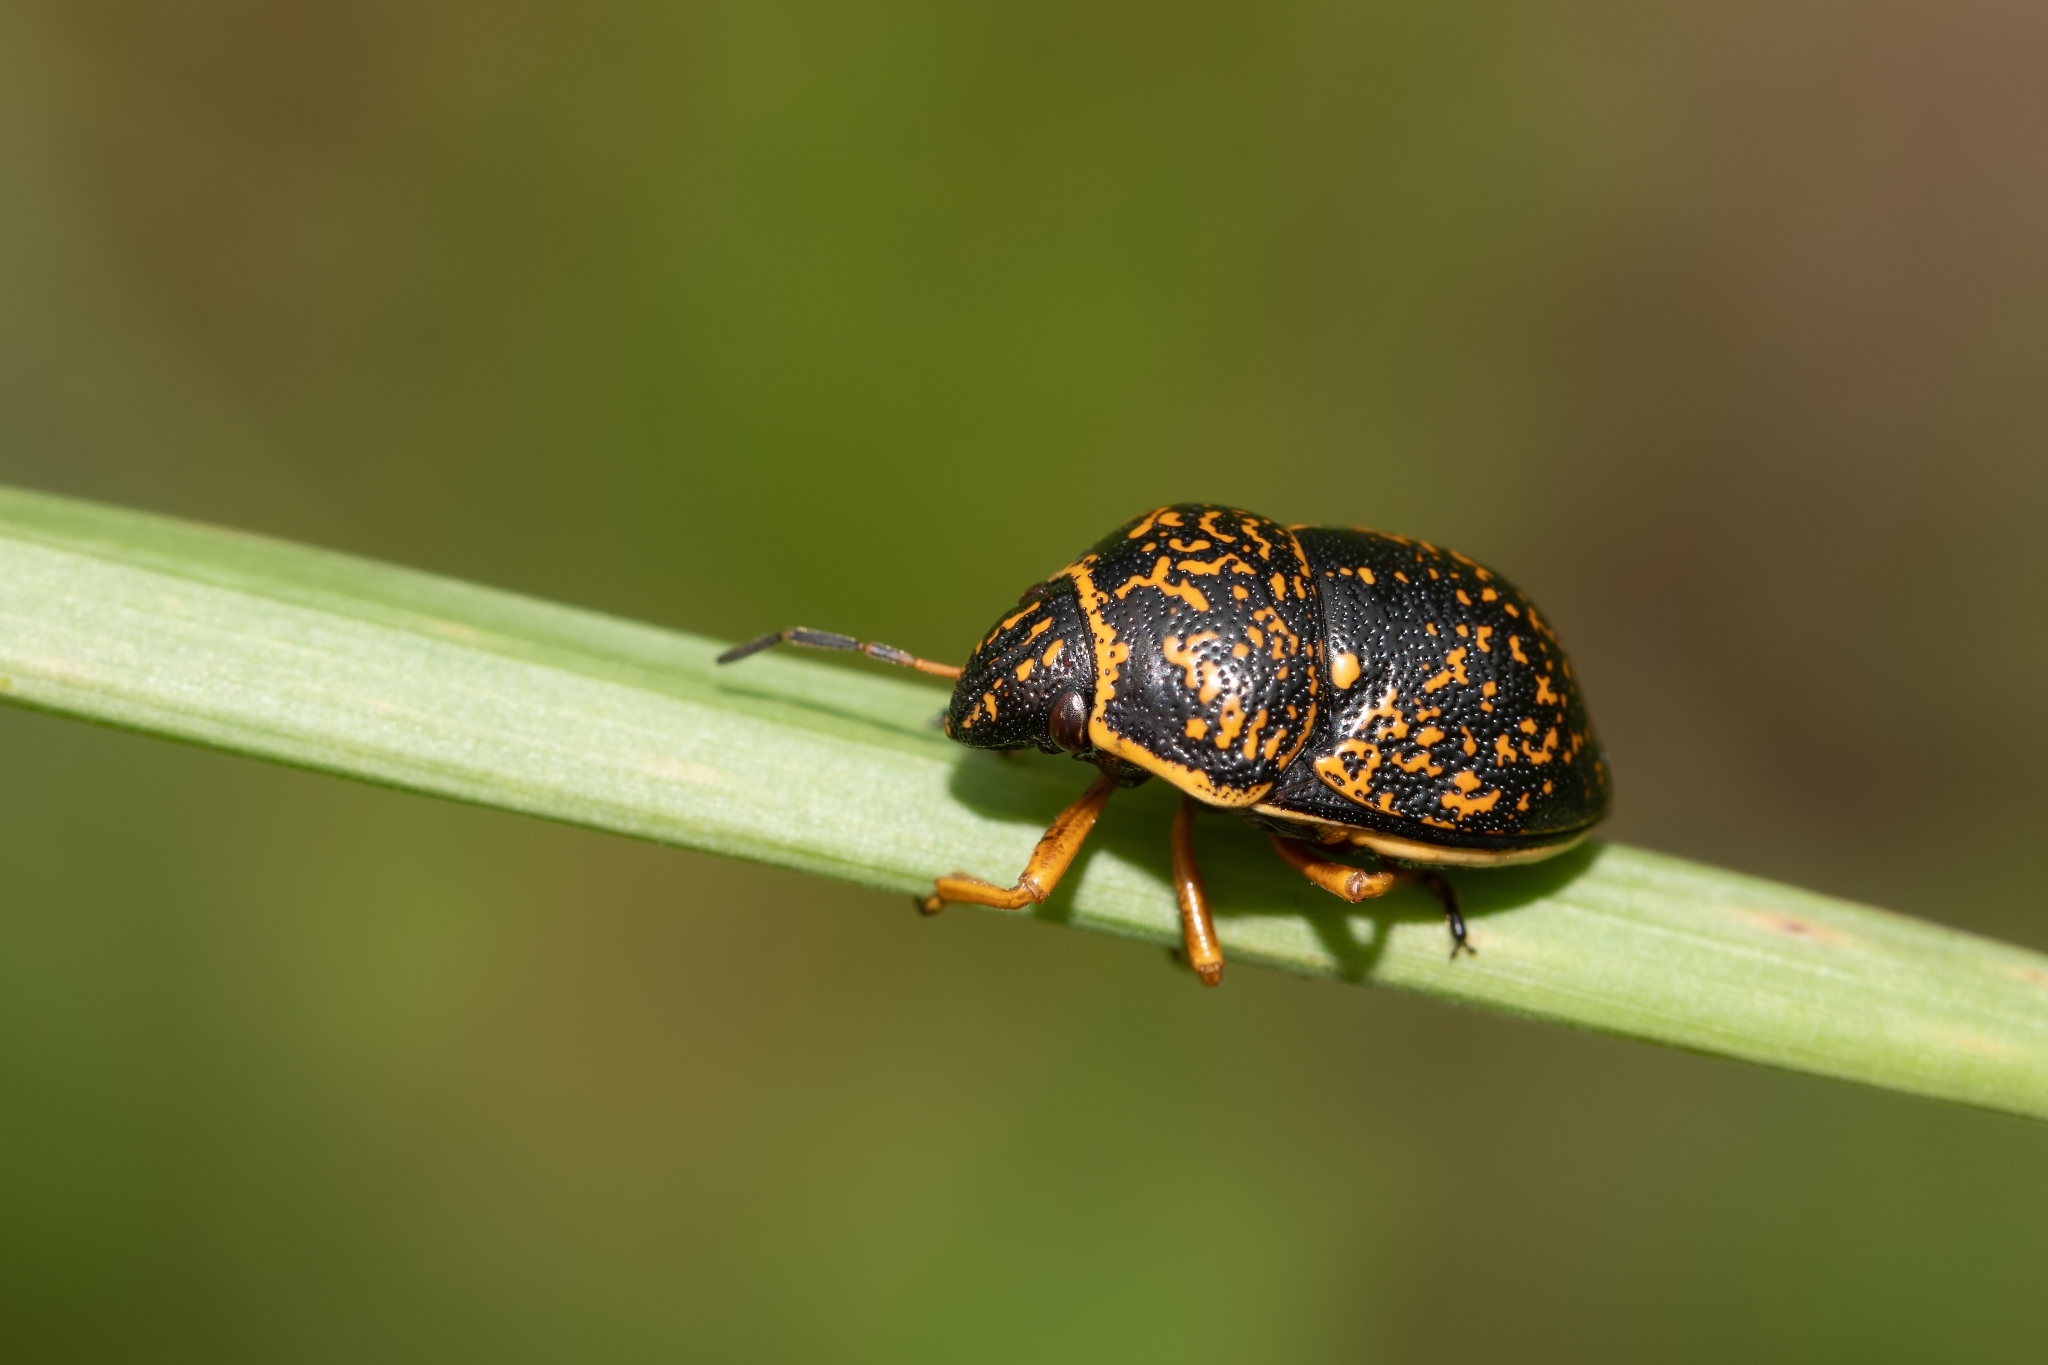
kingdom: Animalia
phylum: Arthropoda
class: Insecta
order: Hemiptera
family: Scutelleridae
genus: Orsilochides
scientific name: Orsilochides guttata
